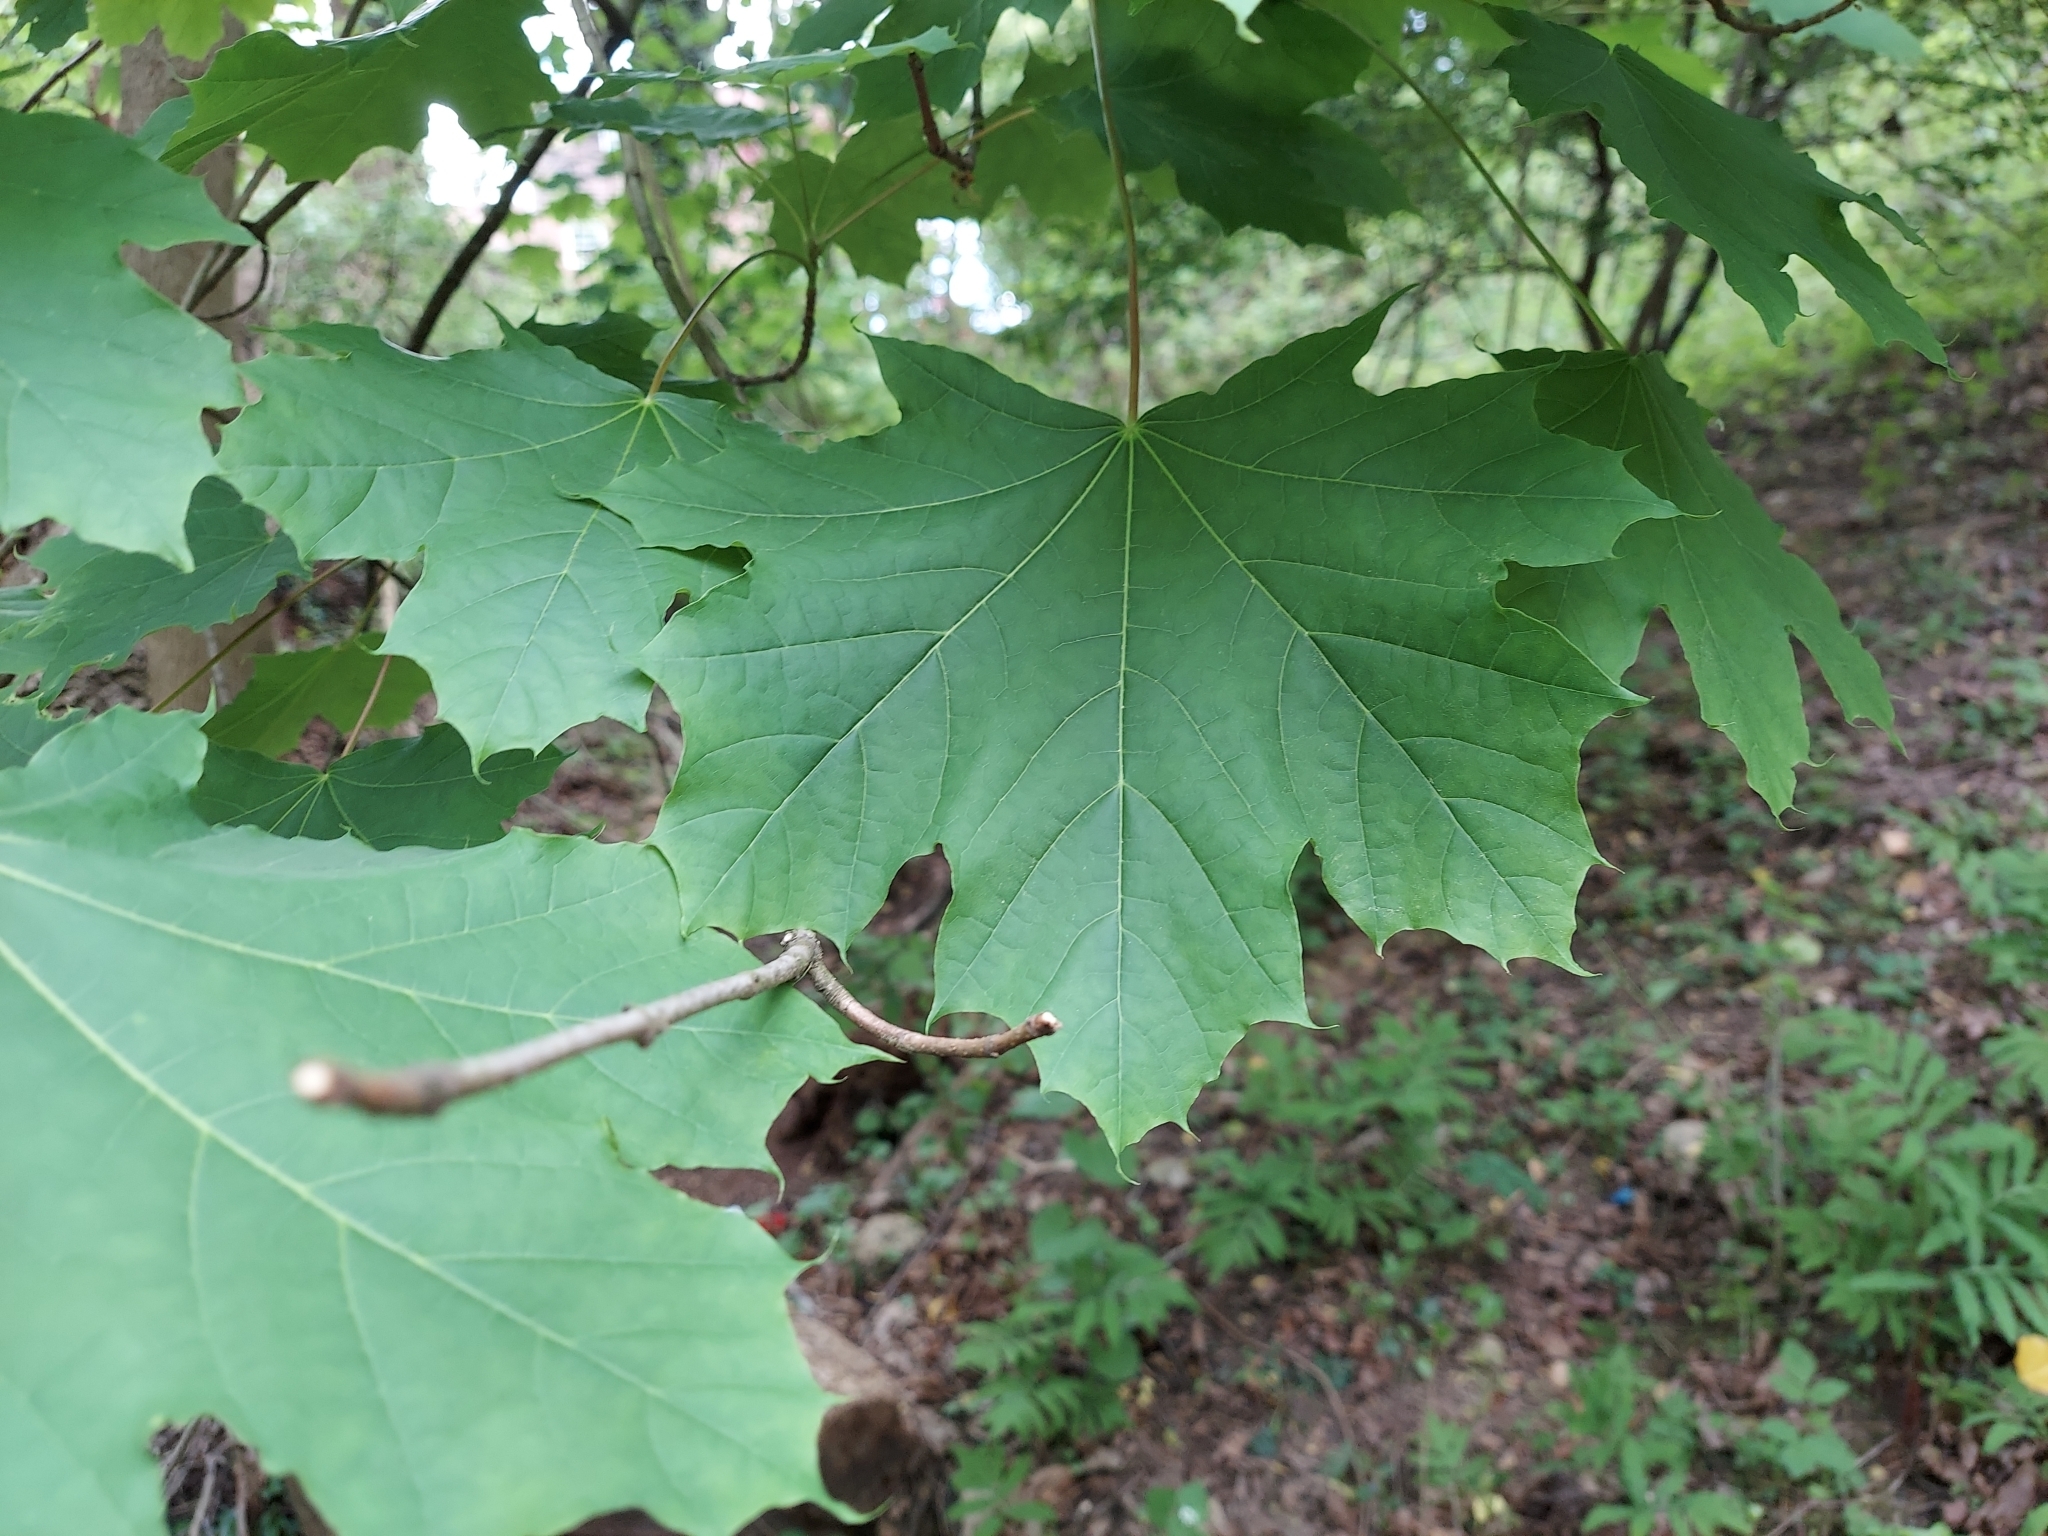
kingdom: Plantae
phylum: Tracheophyta
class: Magnoliopsida
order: Sapindales
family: Sapindaceae
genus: Acer
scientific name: Acer platanoides
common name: Norway maple
